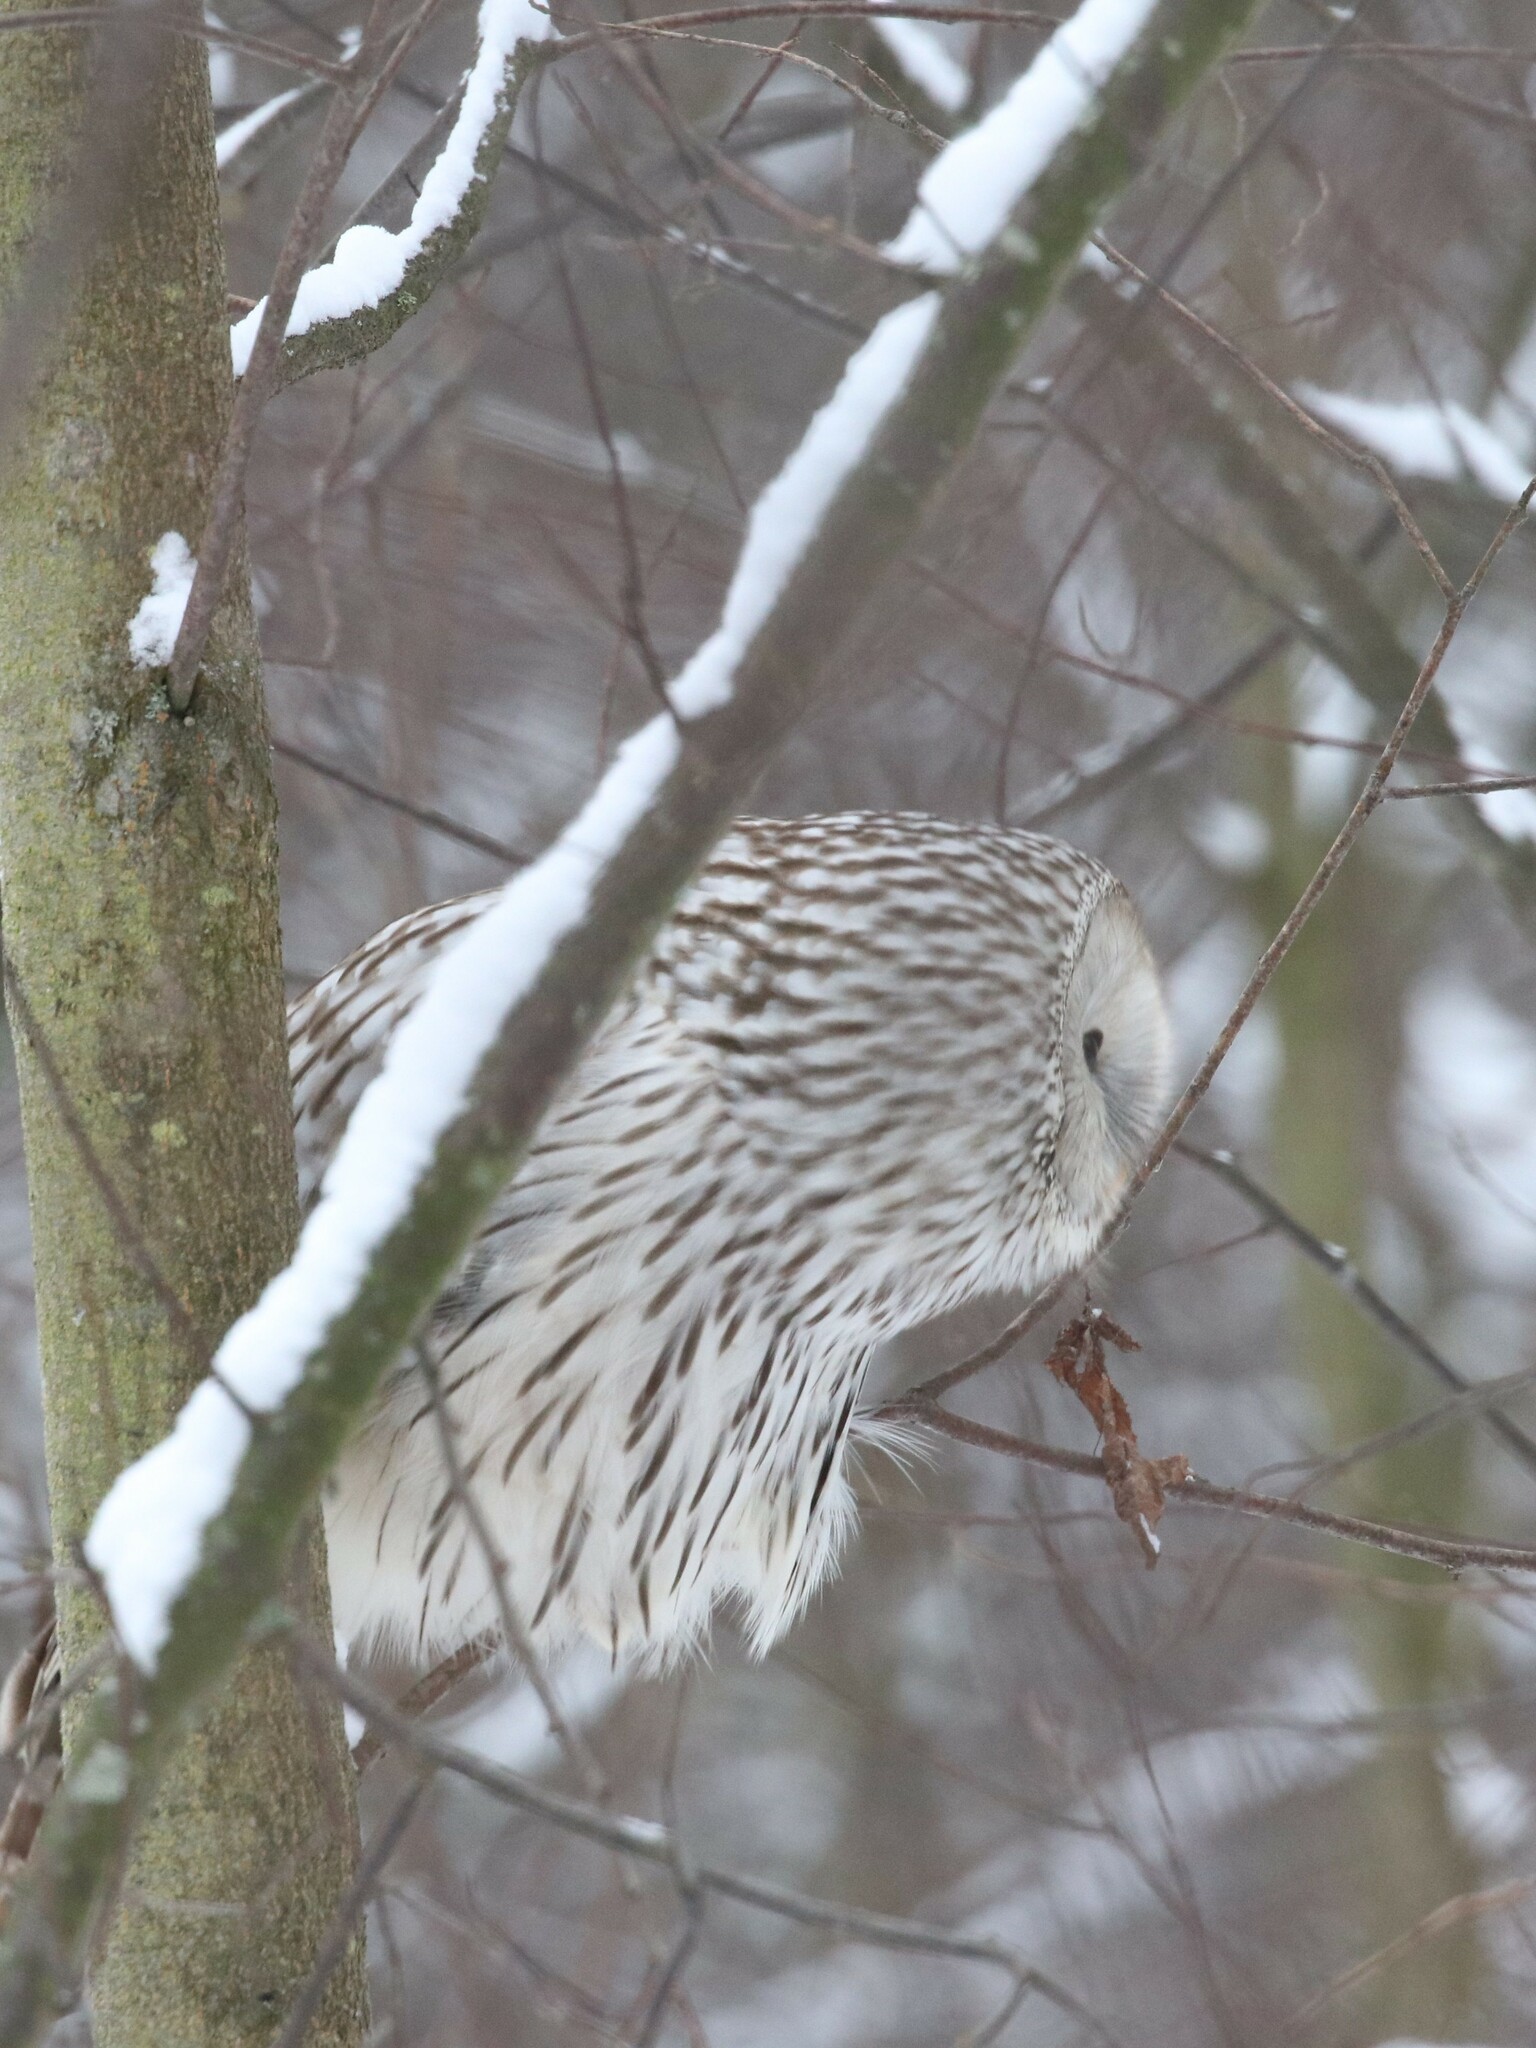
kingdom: Animalia
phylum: Chordata
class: Aves
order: Strigiformes
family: Strigidae
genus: Strix
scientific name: Strix uralensis
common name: Ural owl
